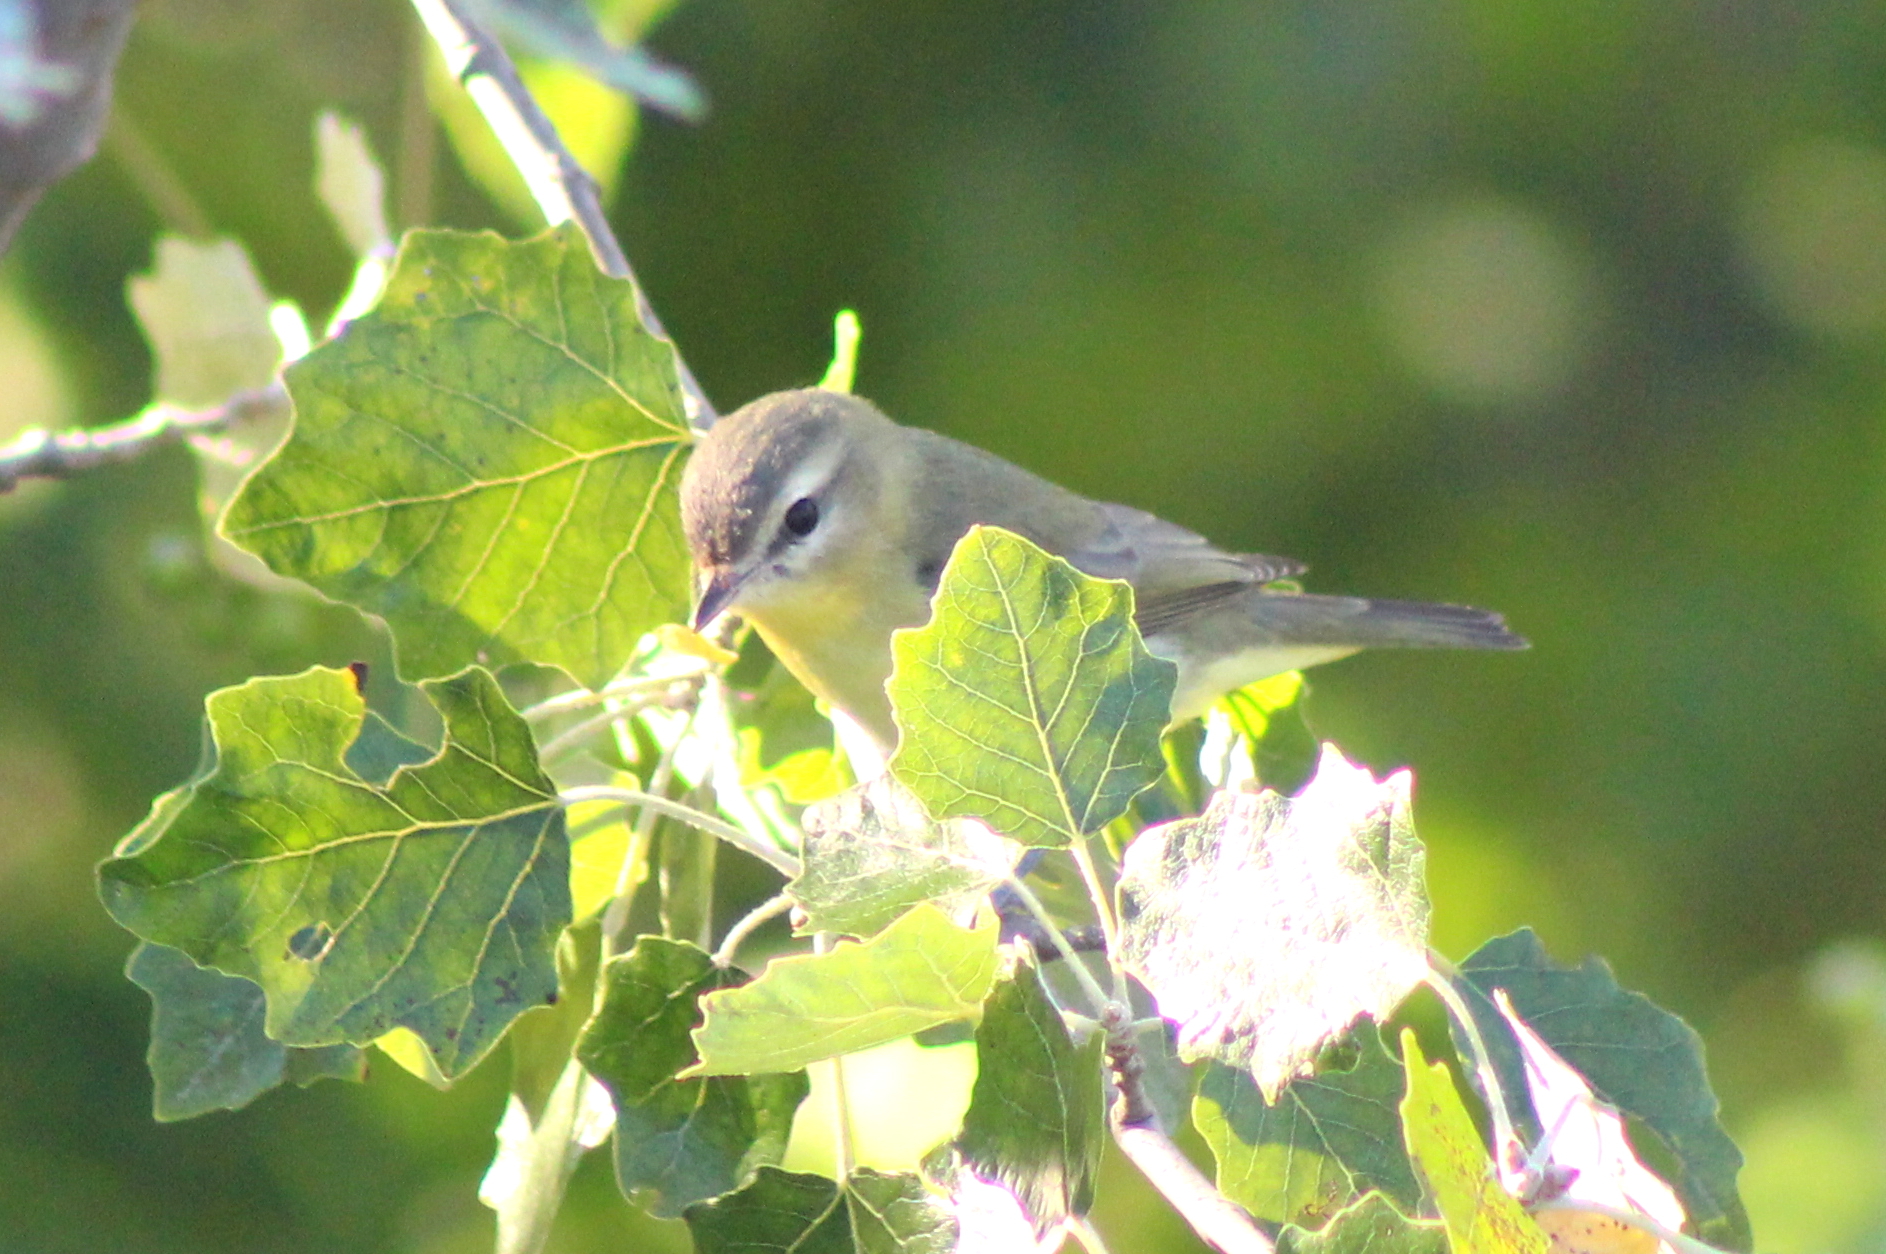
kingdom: Animalia
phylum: Chordata
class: Aves
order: Passeriformes
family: Vireonidae
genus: Vireo
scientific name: Vireo philadelphicus
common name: Philadelphia vireo
